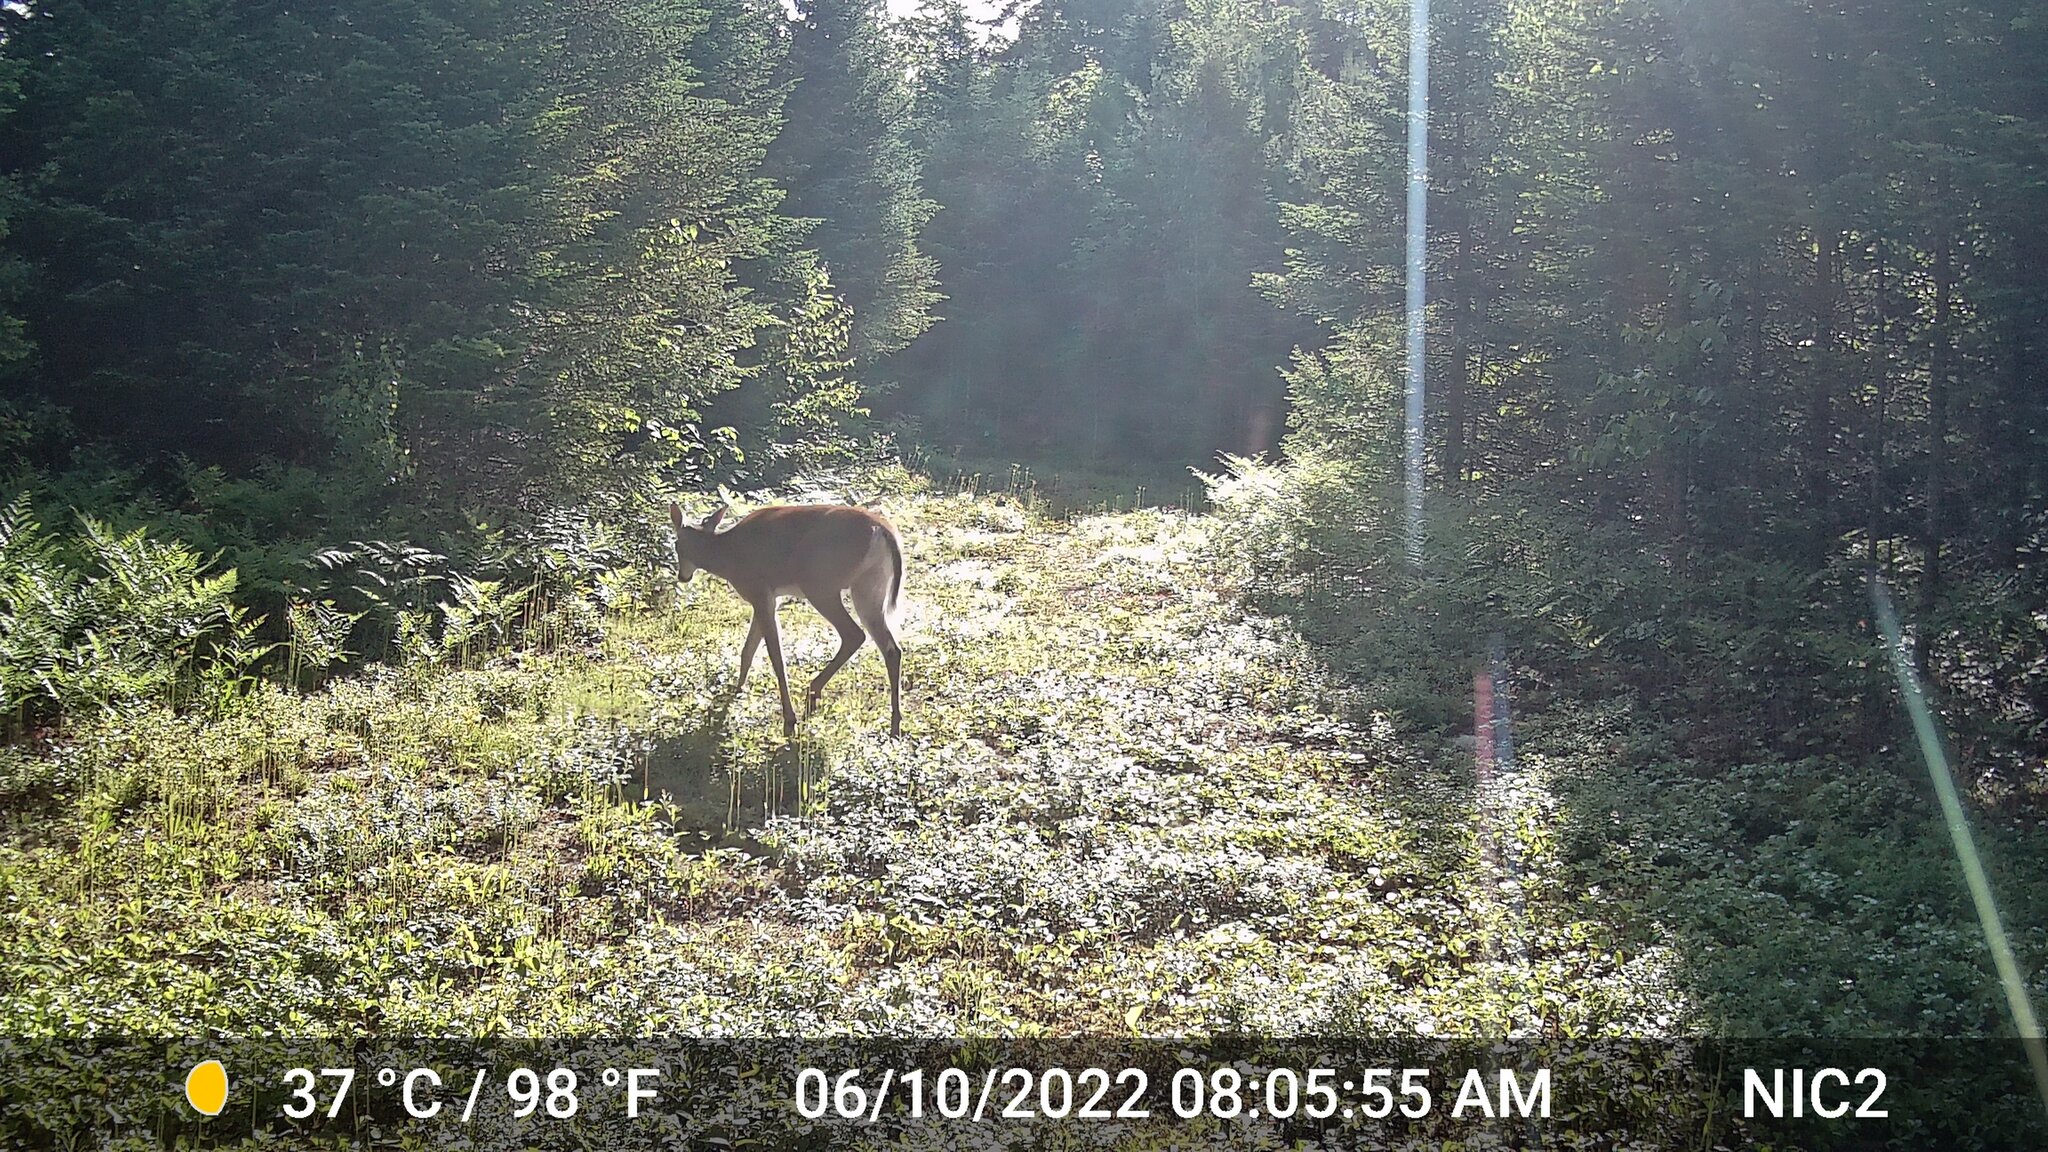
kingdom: Animalia
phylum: Chordata
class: Mammalia
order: Artiodactyla
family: Cervidae
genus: Odocoileus
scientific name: Odocoileus virginianus
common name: White-tailed deer
